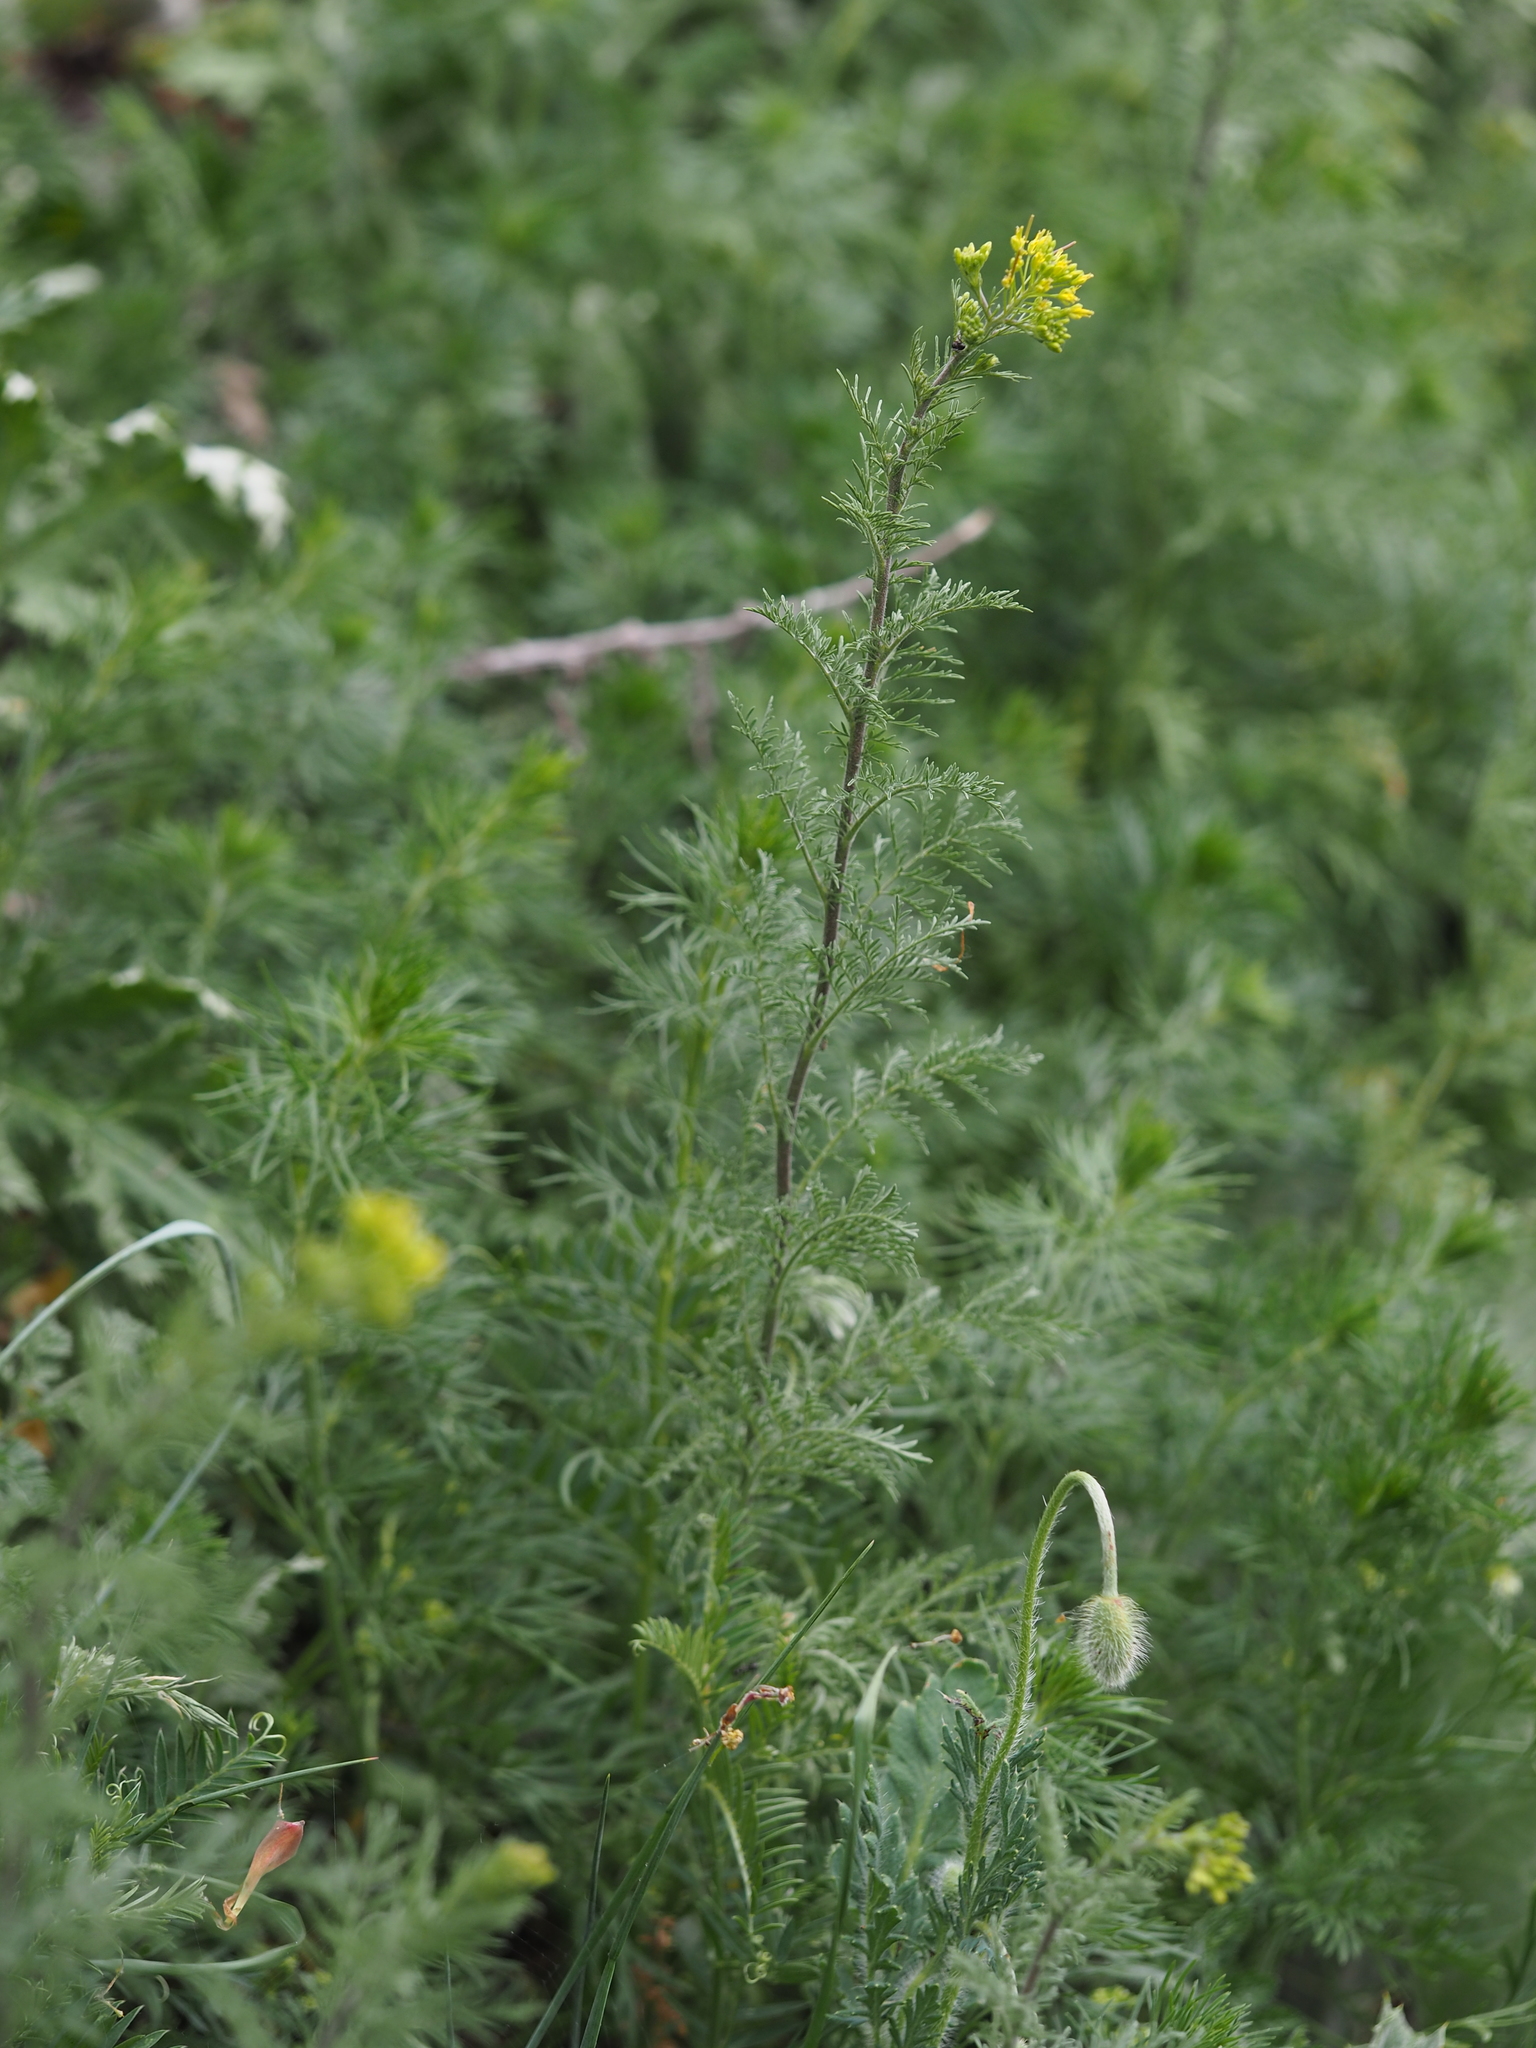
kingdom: Plantae
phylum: Tracheophyta
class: Magnoliopsida
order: Brassicales
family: Brassicaceae
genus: Descurainia
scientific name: Descurainia sophia
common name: Flixweed
